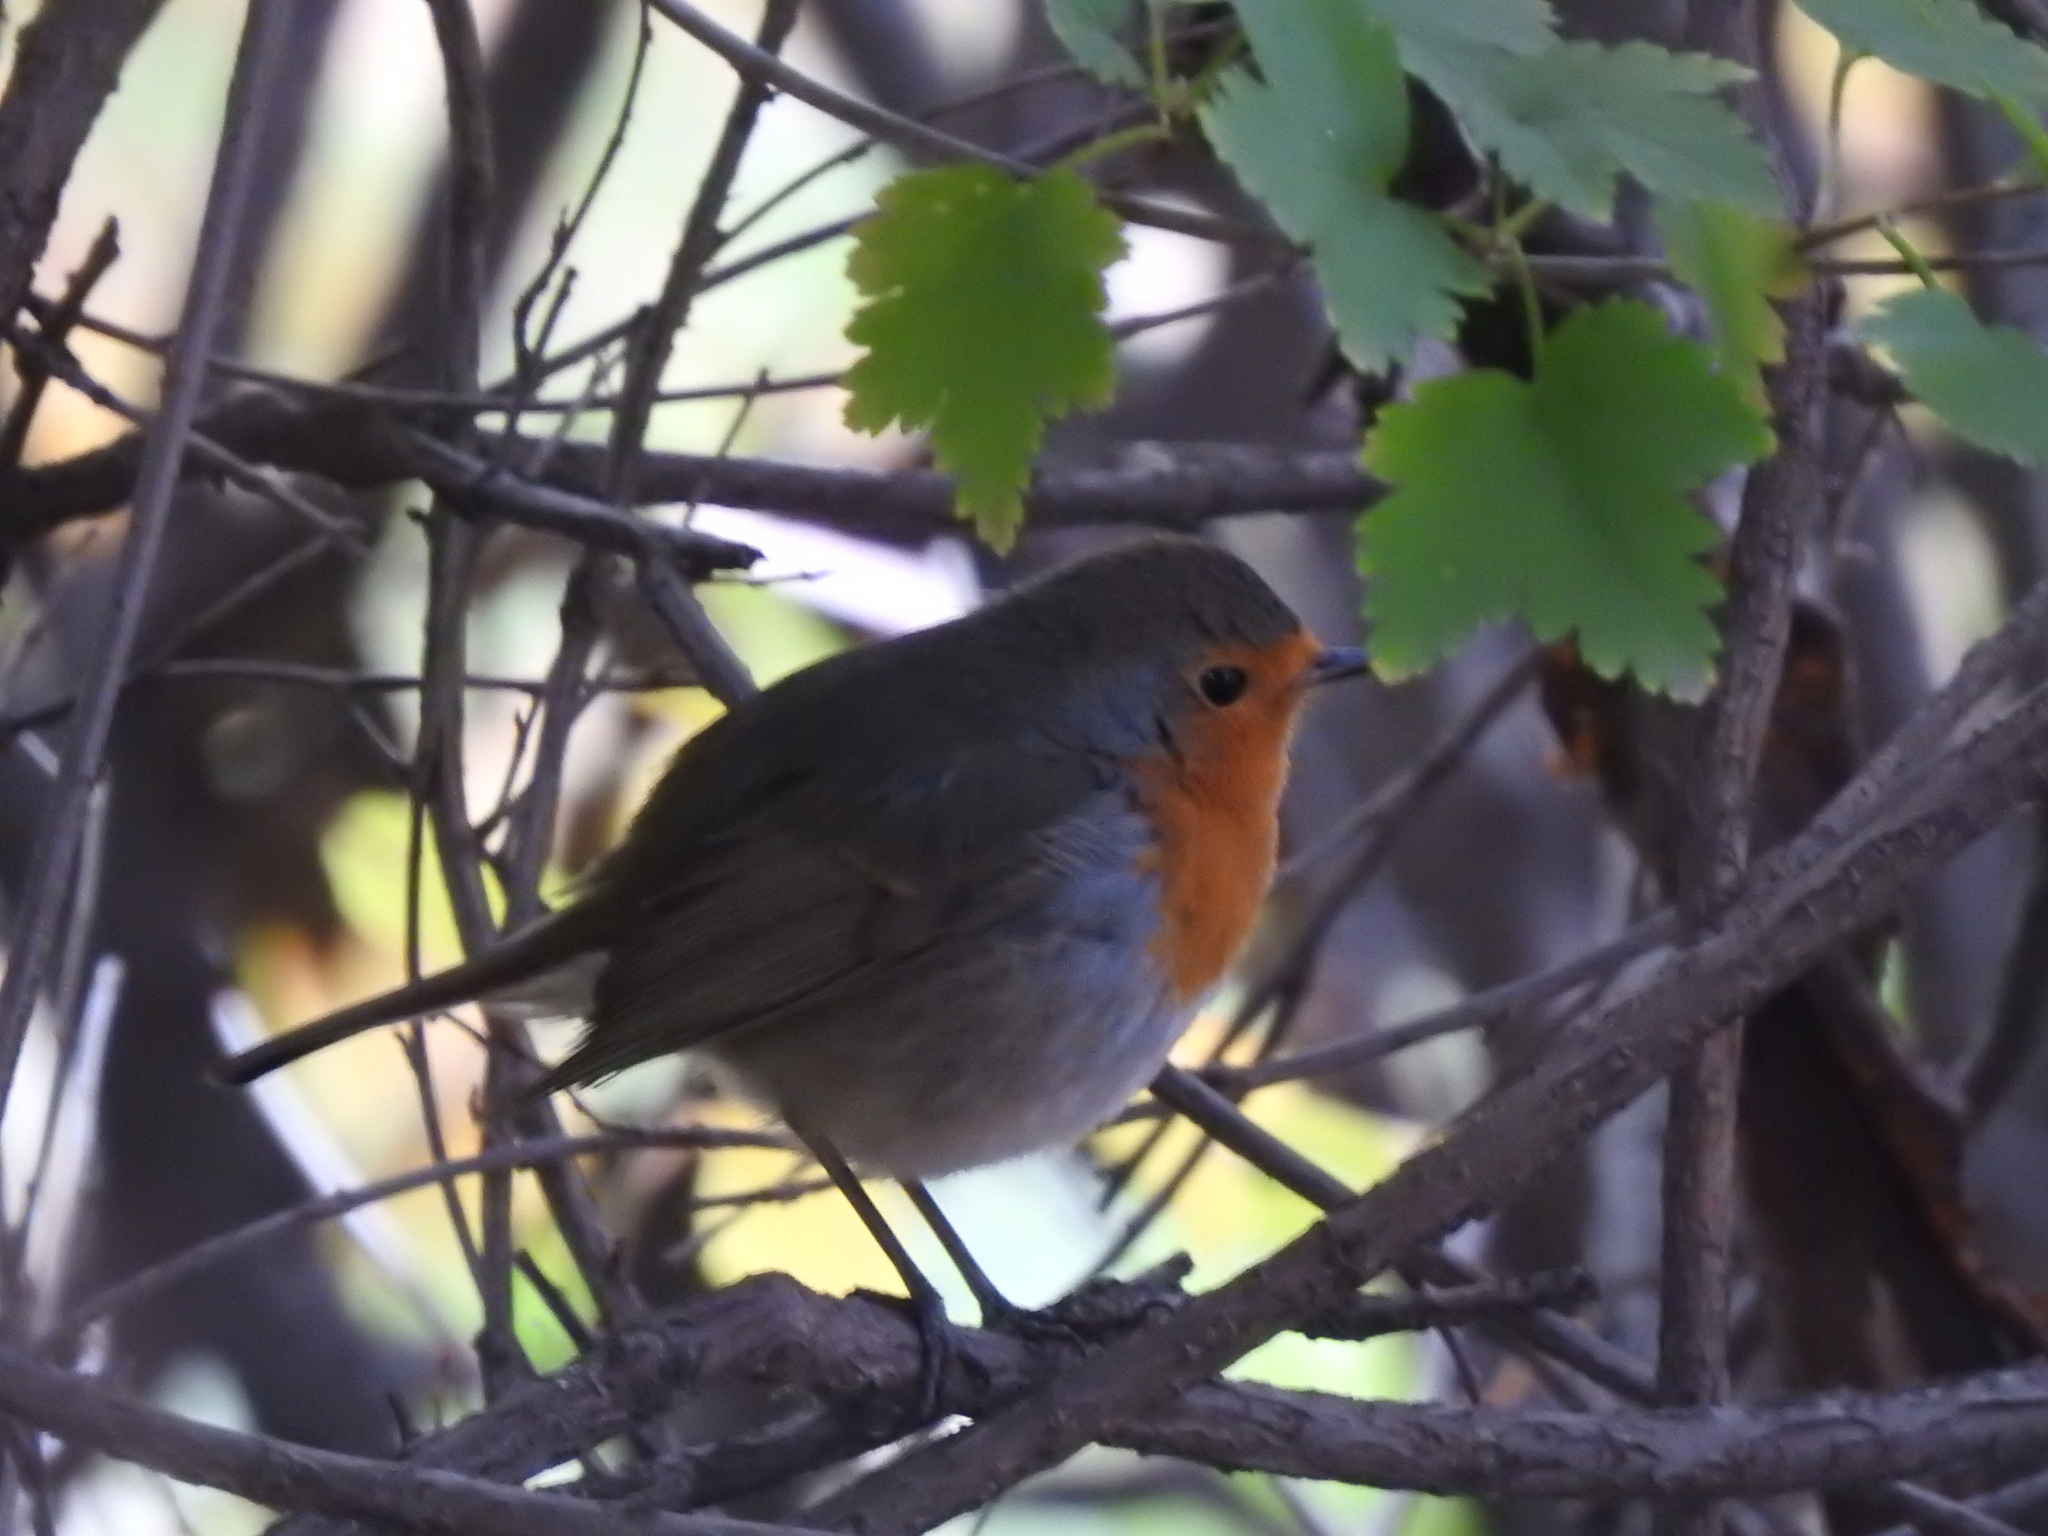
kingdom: Animalia
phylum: Chordata
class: Aves
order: Passeriformes
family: Muscicapidae
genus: Erithacus
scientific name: Erithacus rubecula
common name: European robin
